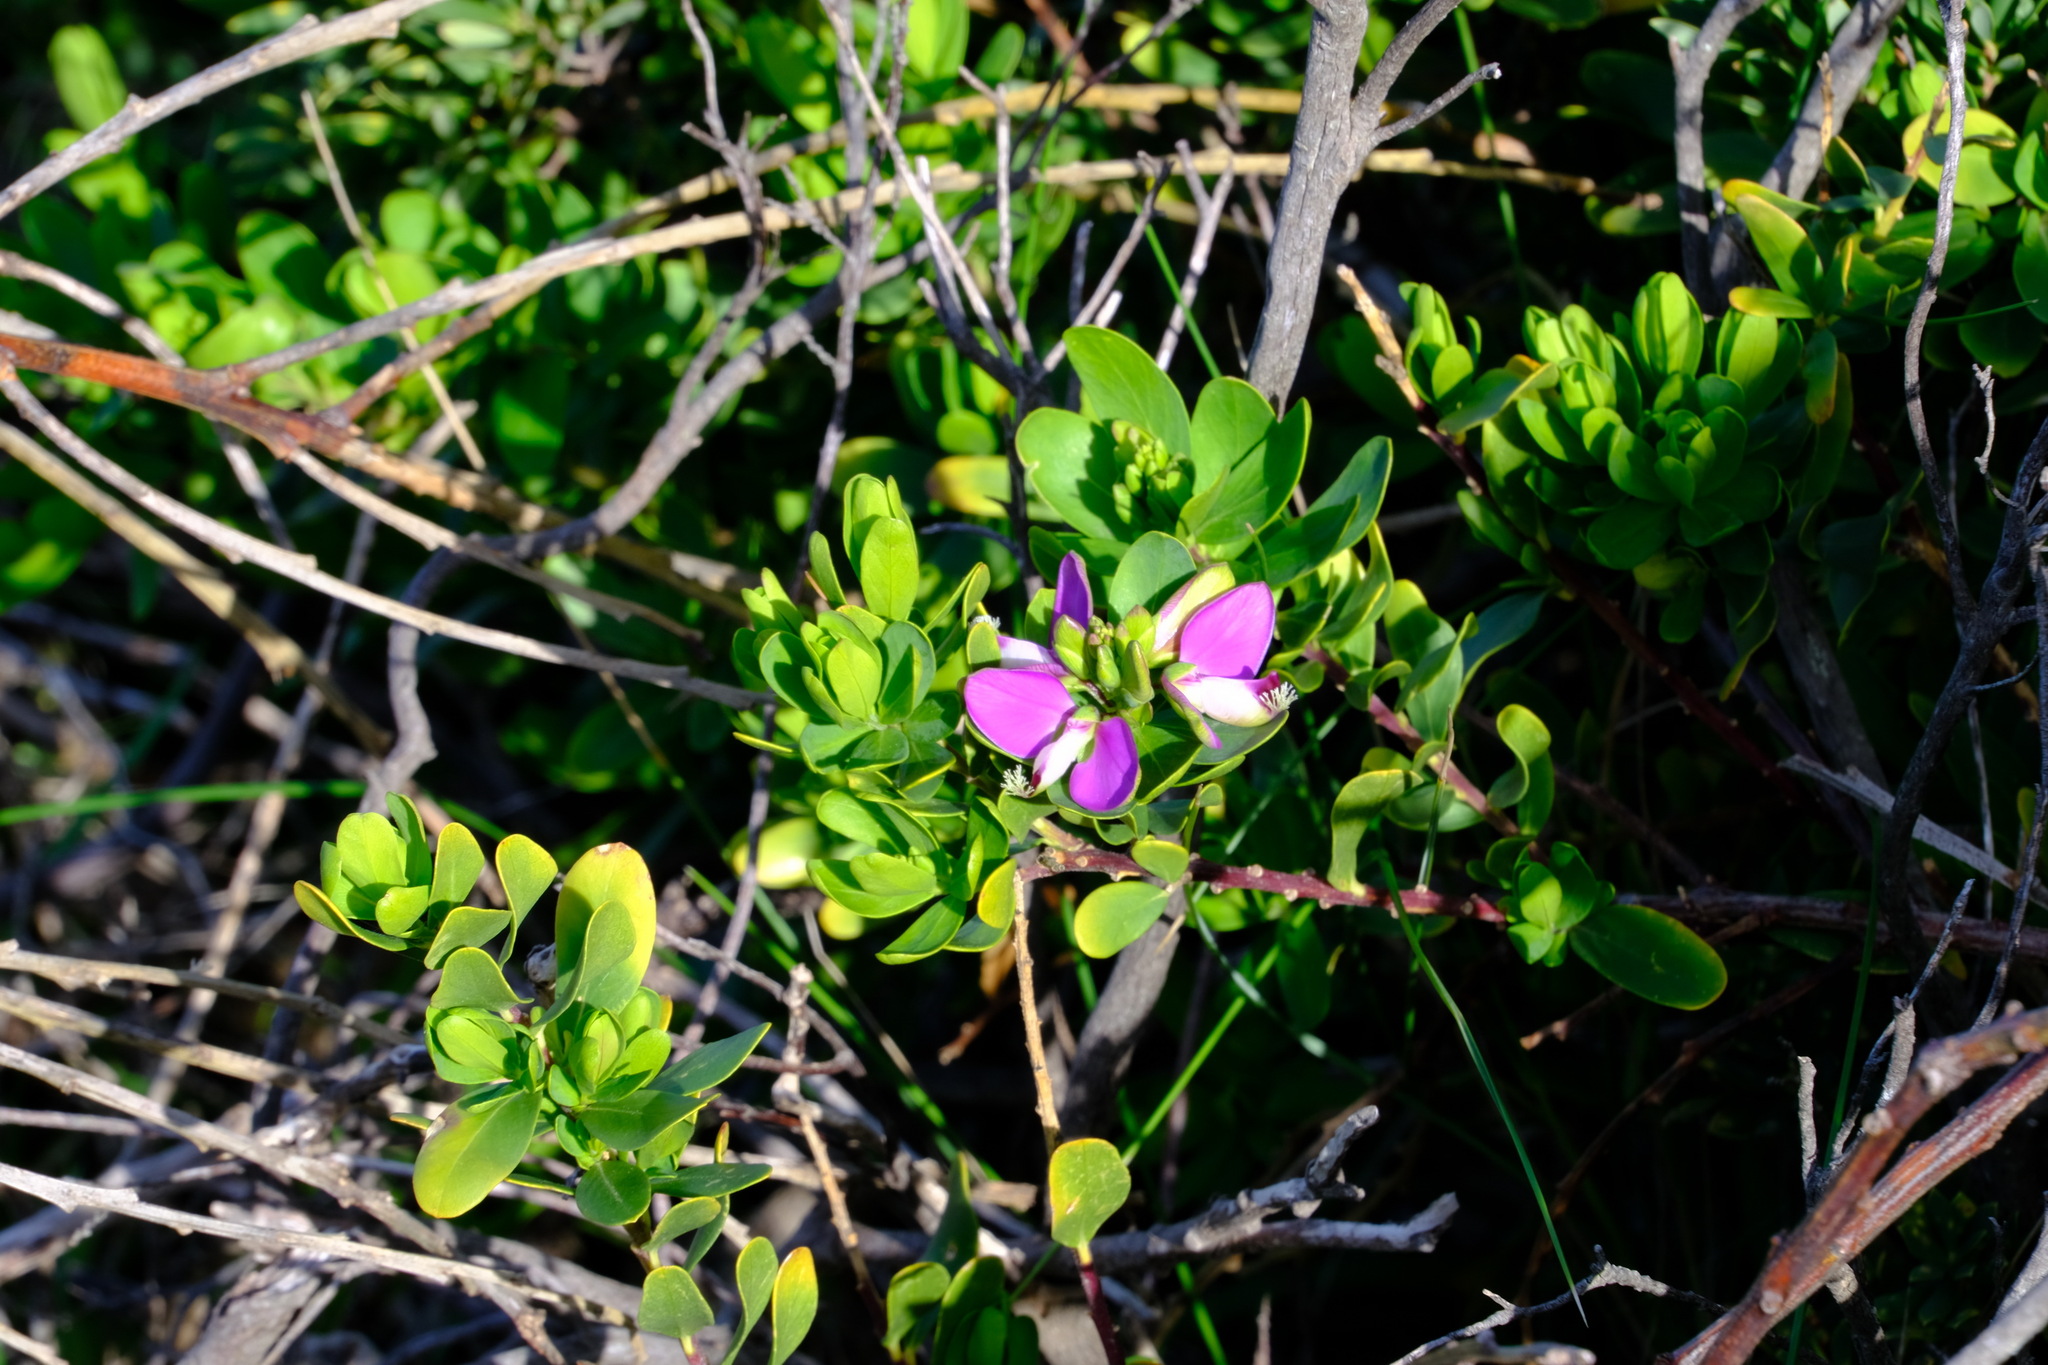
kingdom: Plantae
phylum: Tracheophyta
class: Magnoliopsida
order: Fabales
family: Polygalaceae
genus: Polygala
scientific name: Polygala myrtifolia
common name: Myrtle-leaf milkwort
